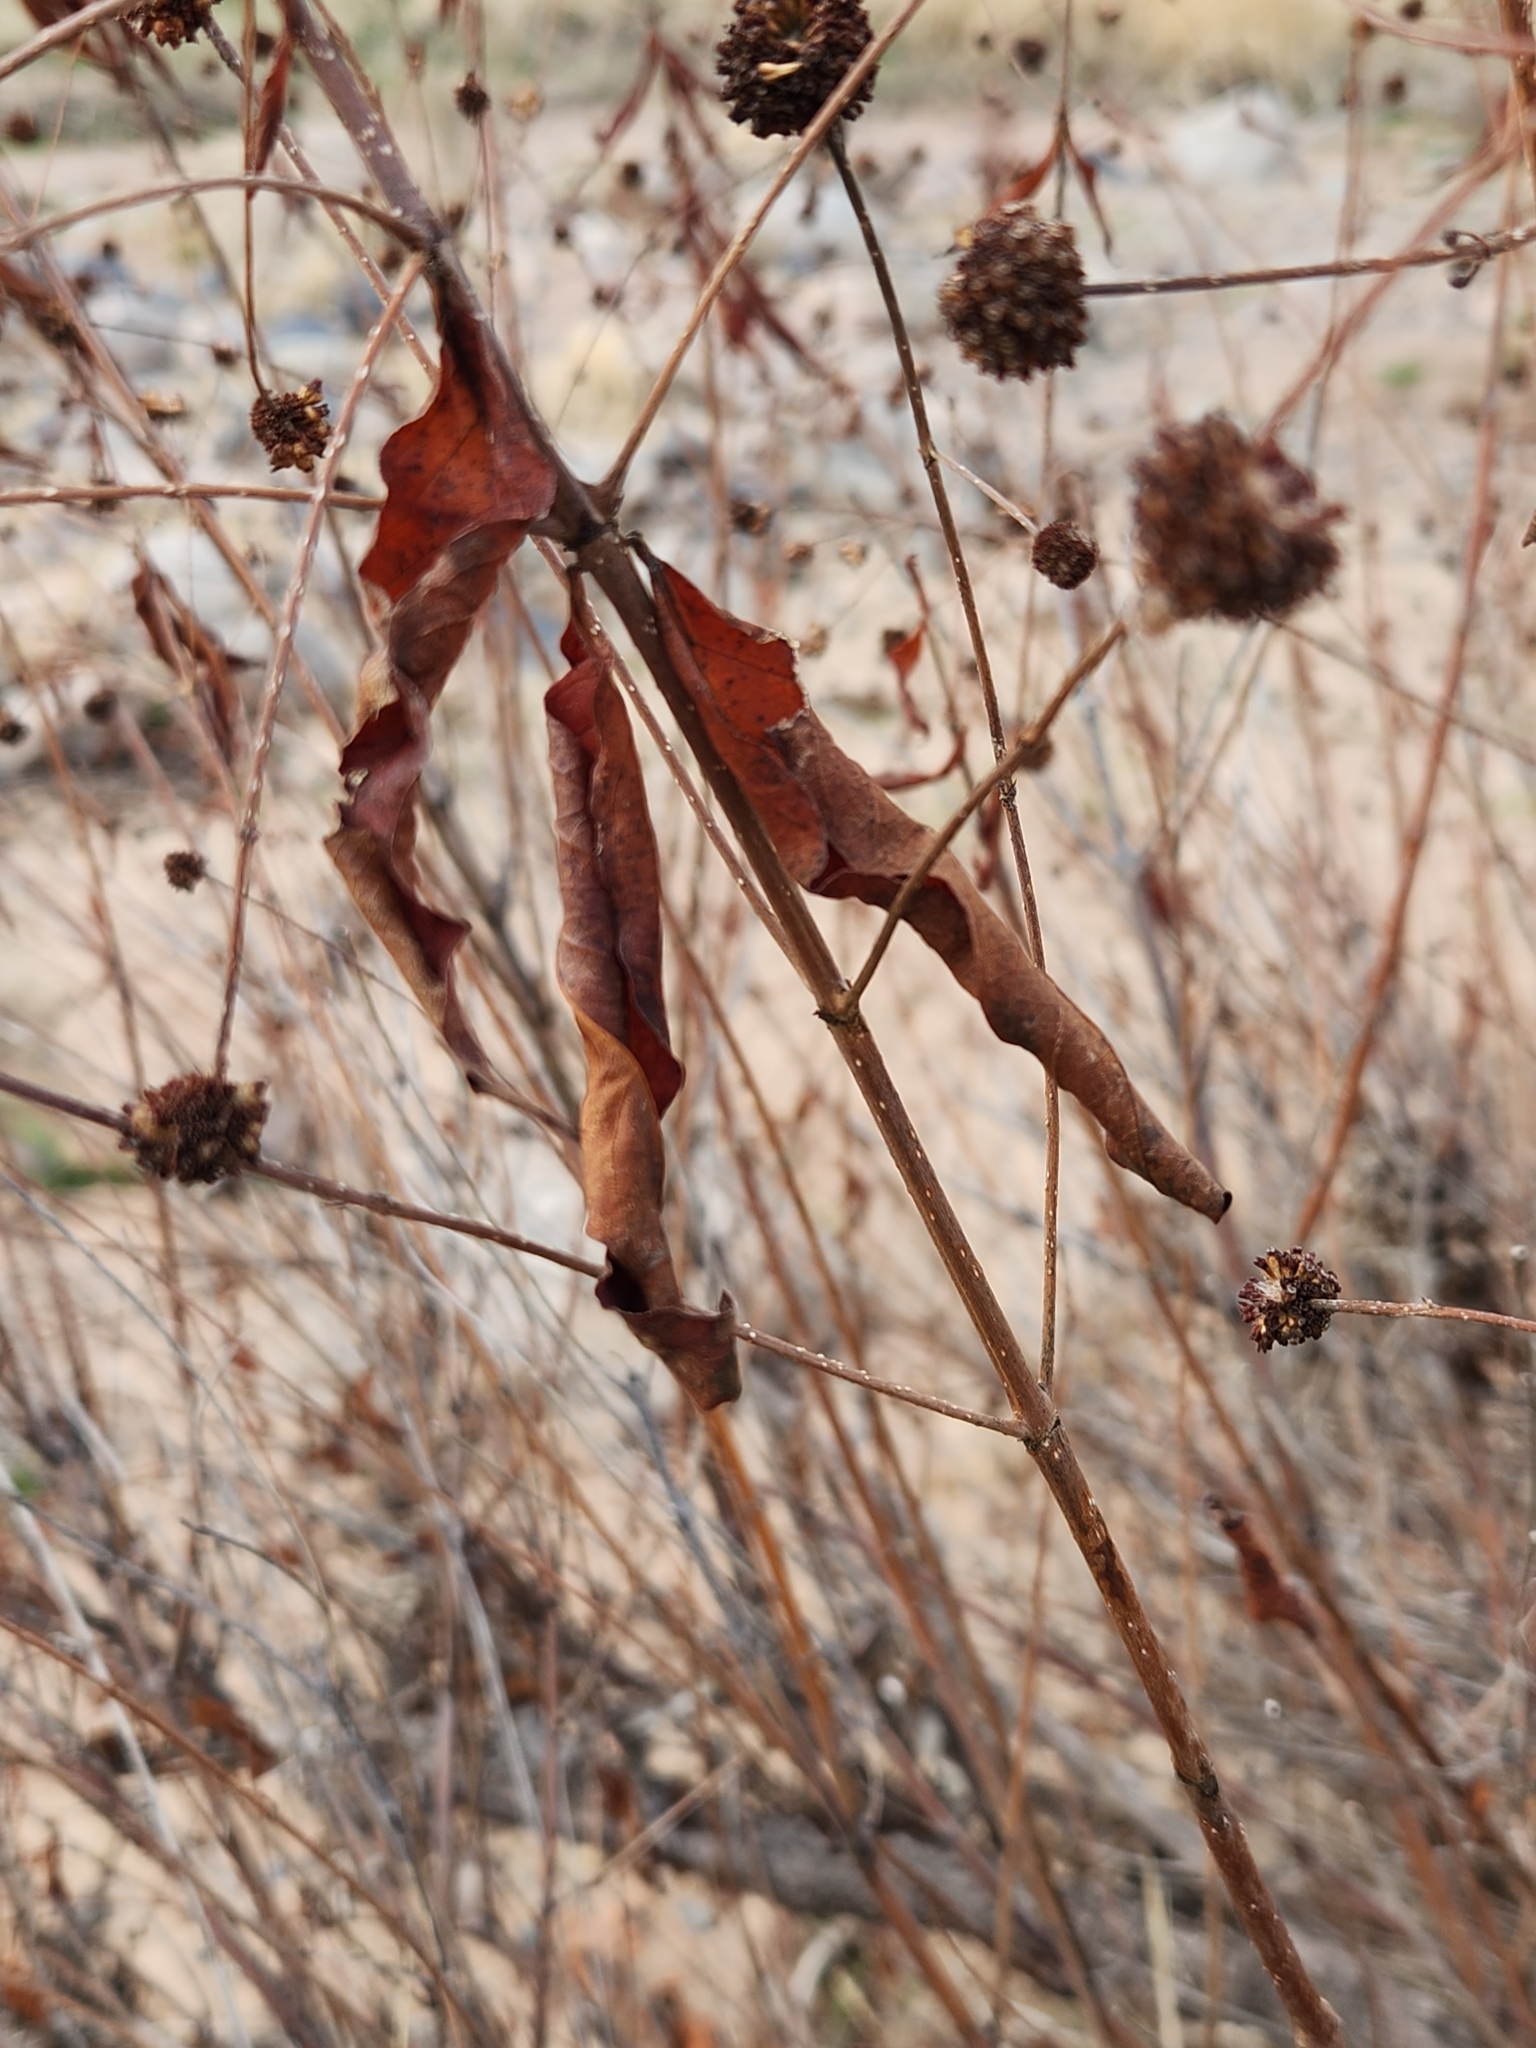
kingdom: Plantae
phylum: Tracheophyta
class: Magnoliopsida
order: Gentianales
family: Rubiaceae
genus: Cephalanthus
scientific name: Cephalanthus occidentalis
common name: Button-willow
